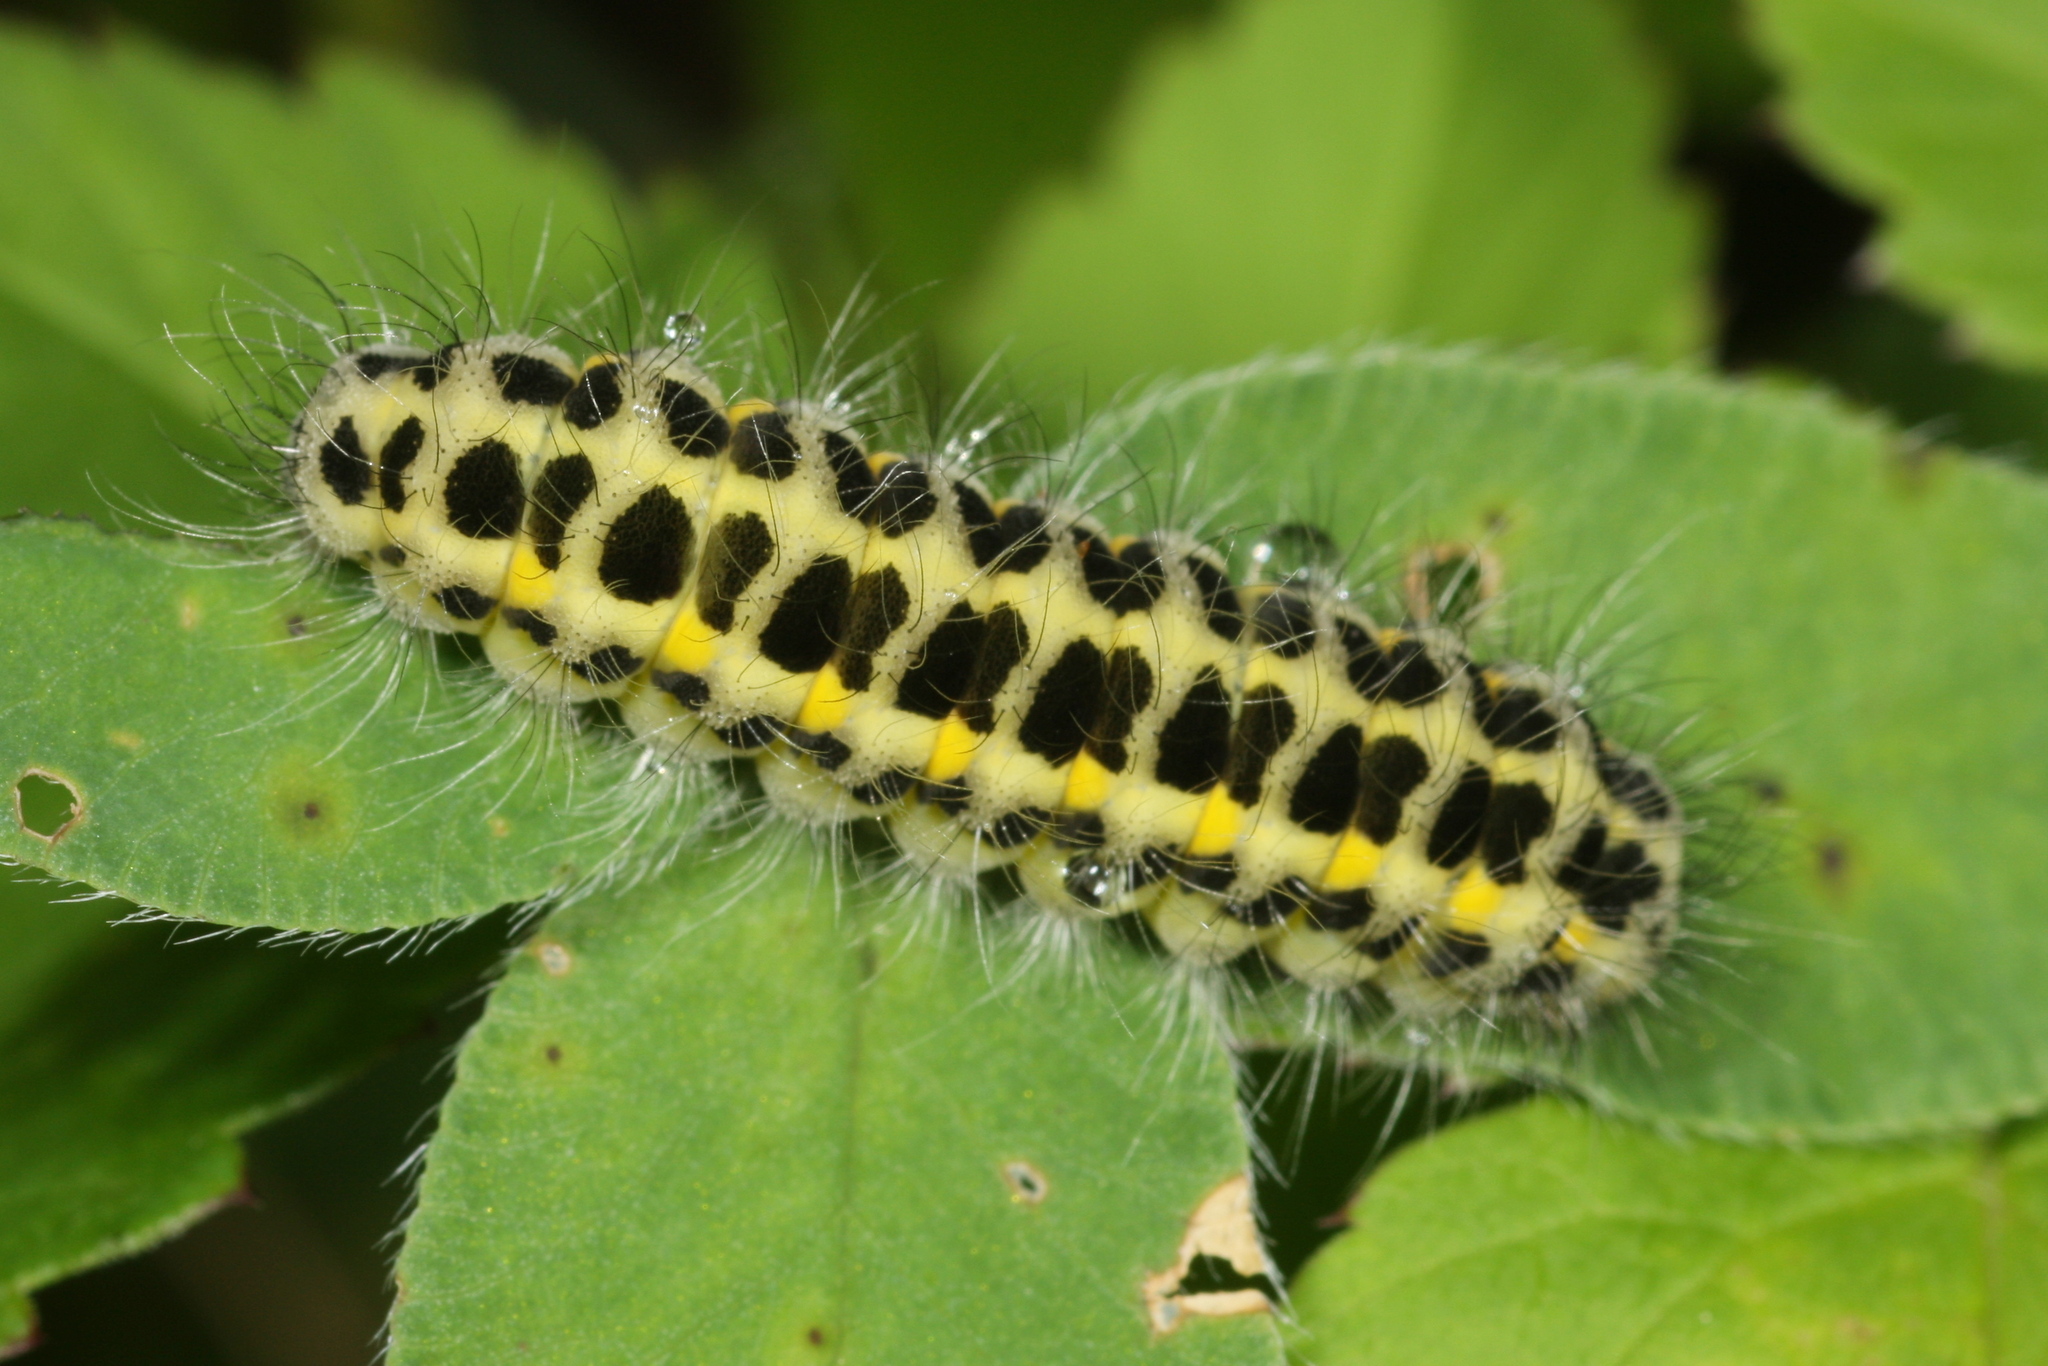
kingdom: Animalia
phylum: Arthropoda
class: Insecta
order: Lepidoptera
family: Zygaenidae
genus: Zygaena
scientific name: Zygaena lonicerae
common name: Narrow-bordered five-spot burnet
